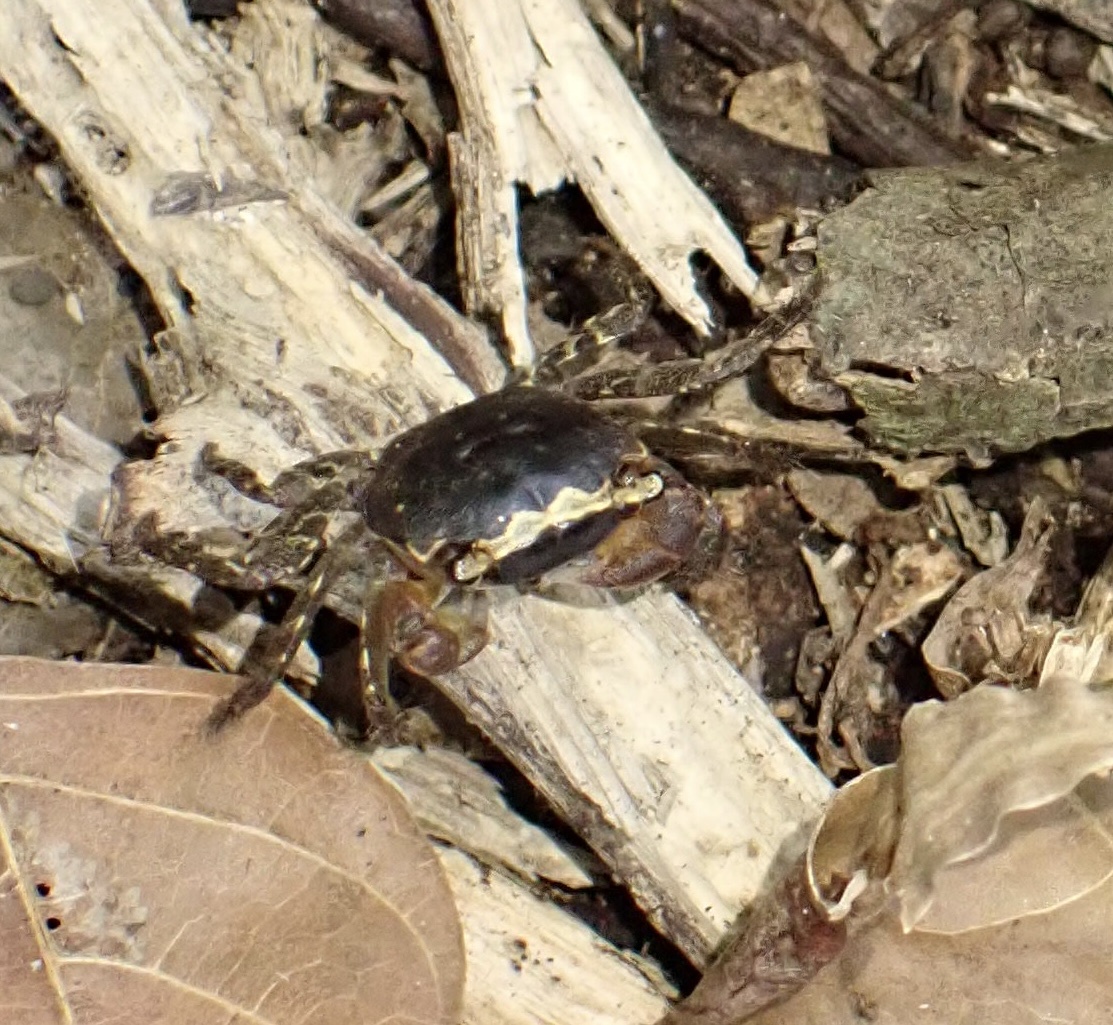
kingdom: Animalia
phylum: Arthropoda
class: Malacostraca
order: Decapoda
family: Sesarmidae
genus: Metasesarma
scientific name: Metasesarma aubryi
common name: Apple crab
